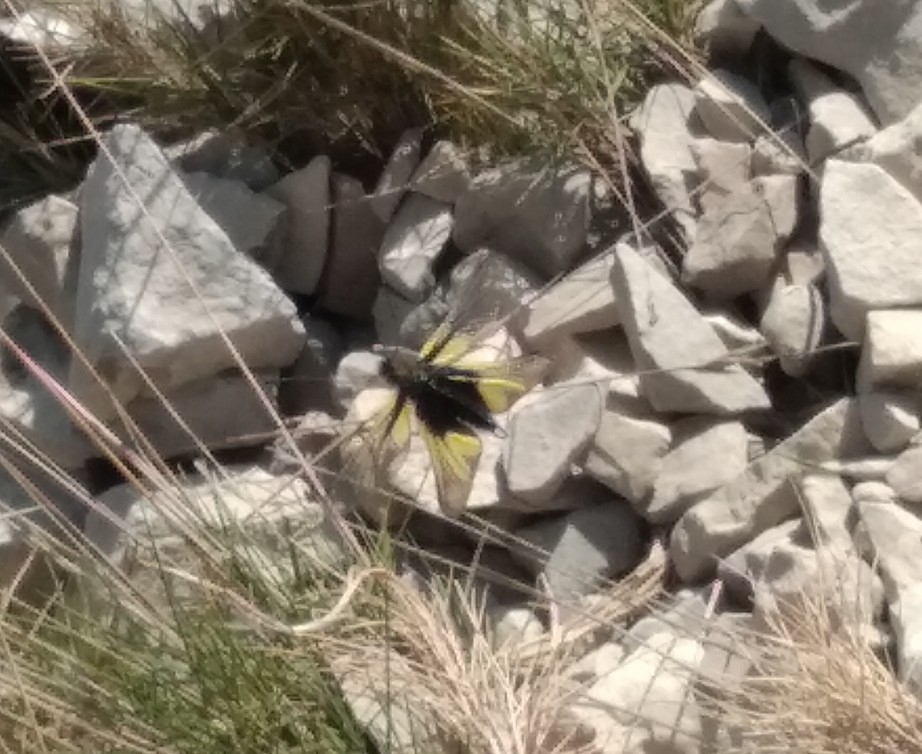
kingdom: Animalia
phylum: Arthropoda
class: Insecta
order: Neuroptera
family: Ascalaphidae
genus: Libelloides
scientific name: Libelloides coccajus
